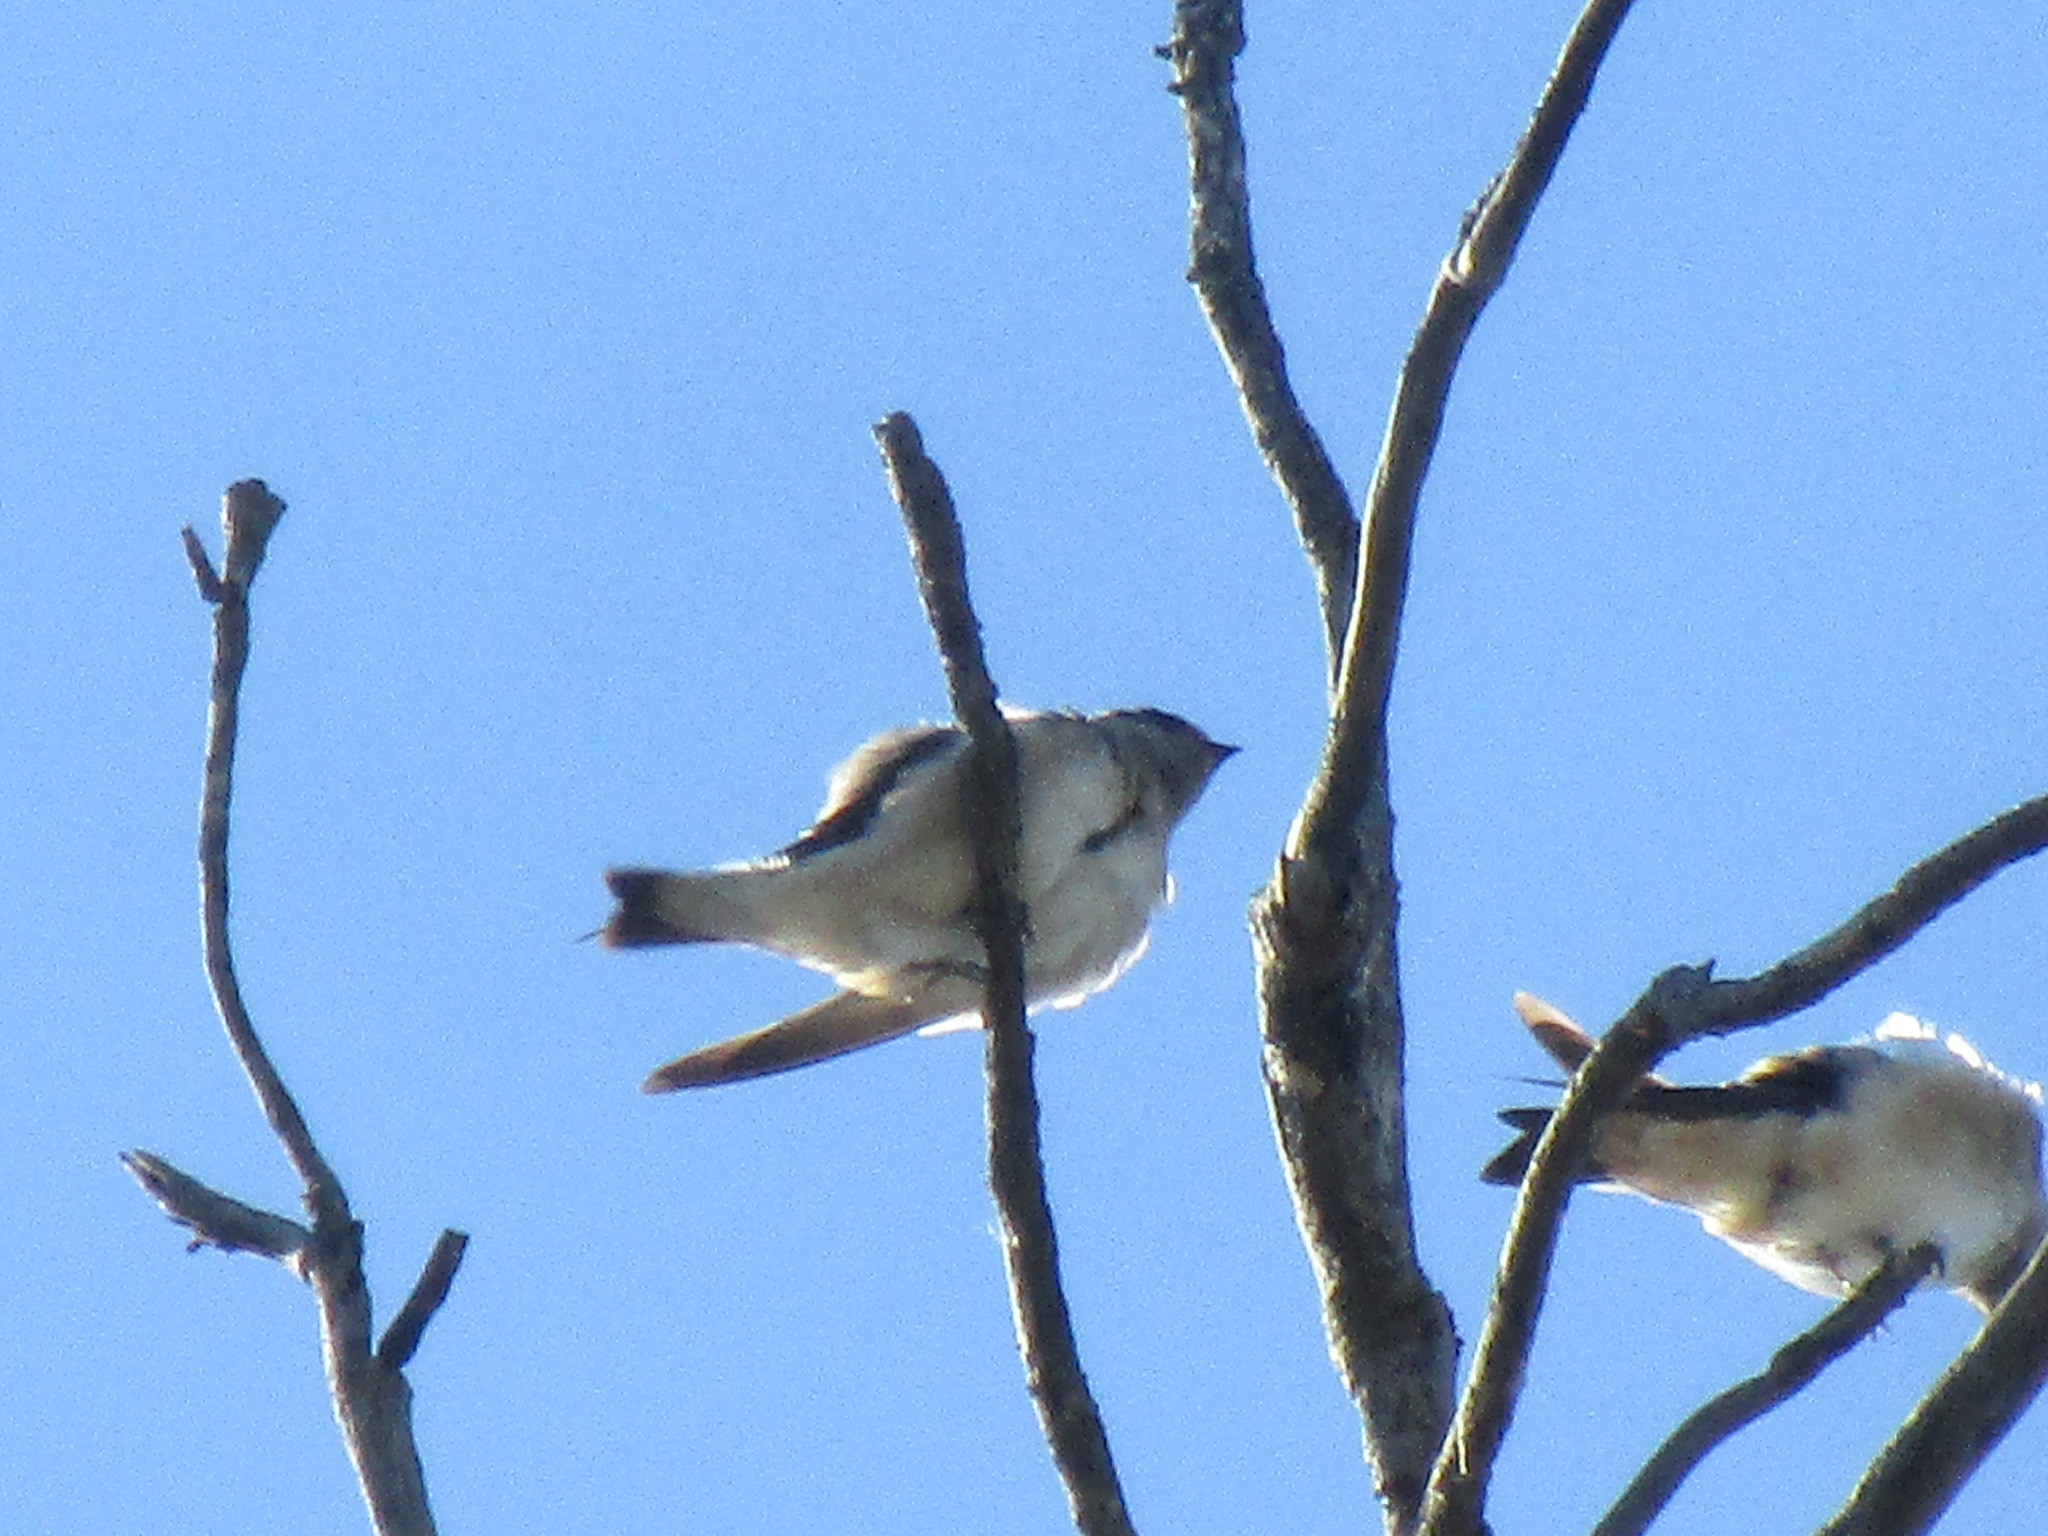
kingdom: Animalia
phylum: Chordata
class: Aves
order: Passeriformes
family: Hirundinidae
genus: Petrochelidon
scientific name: Petrochelidon nigricans
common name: Tree martin
